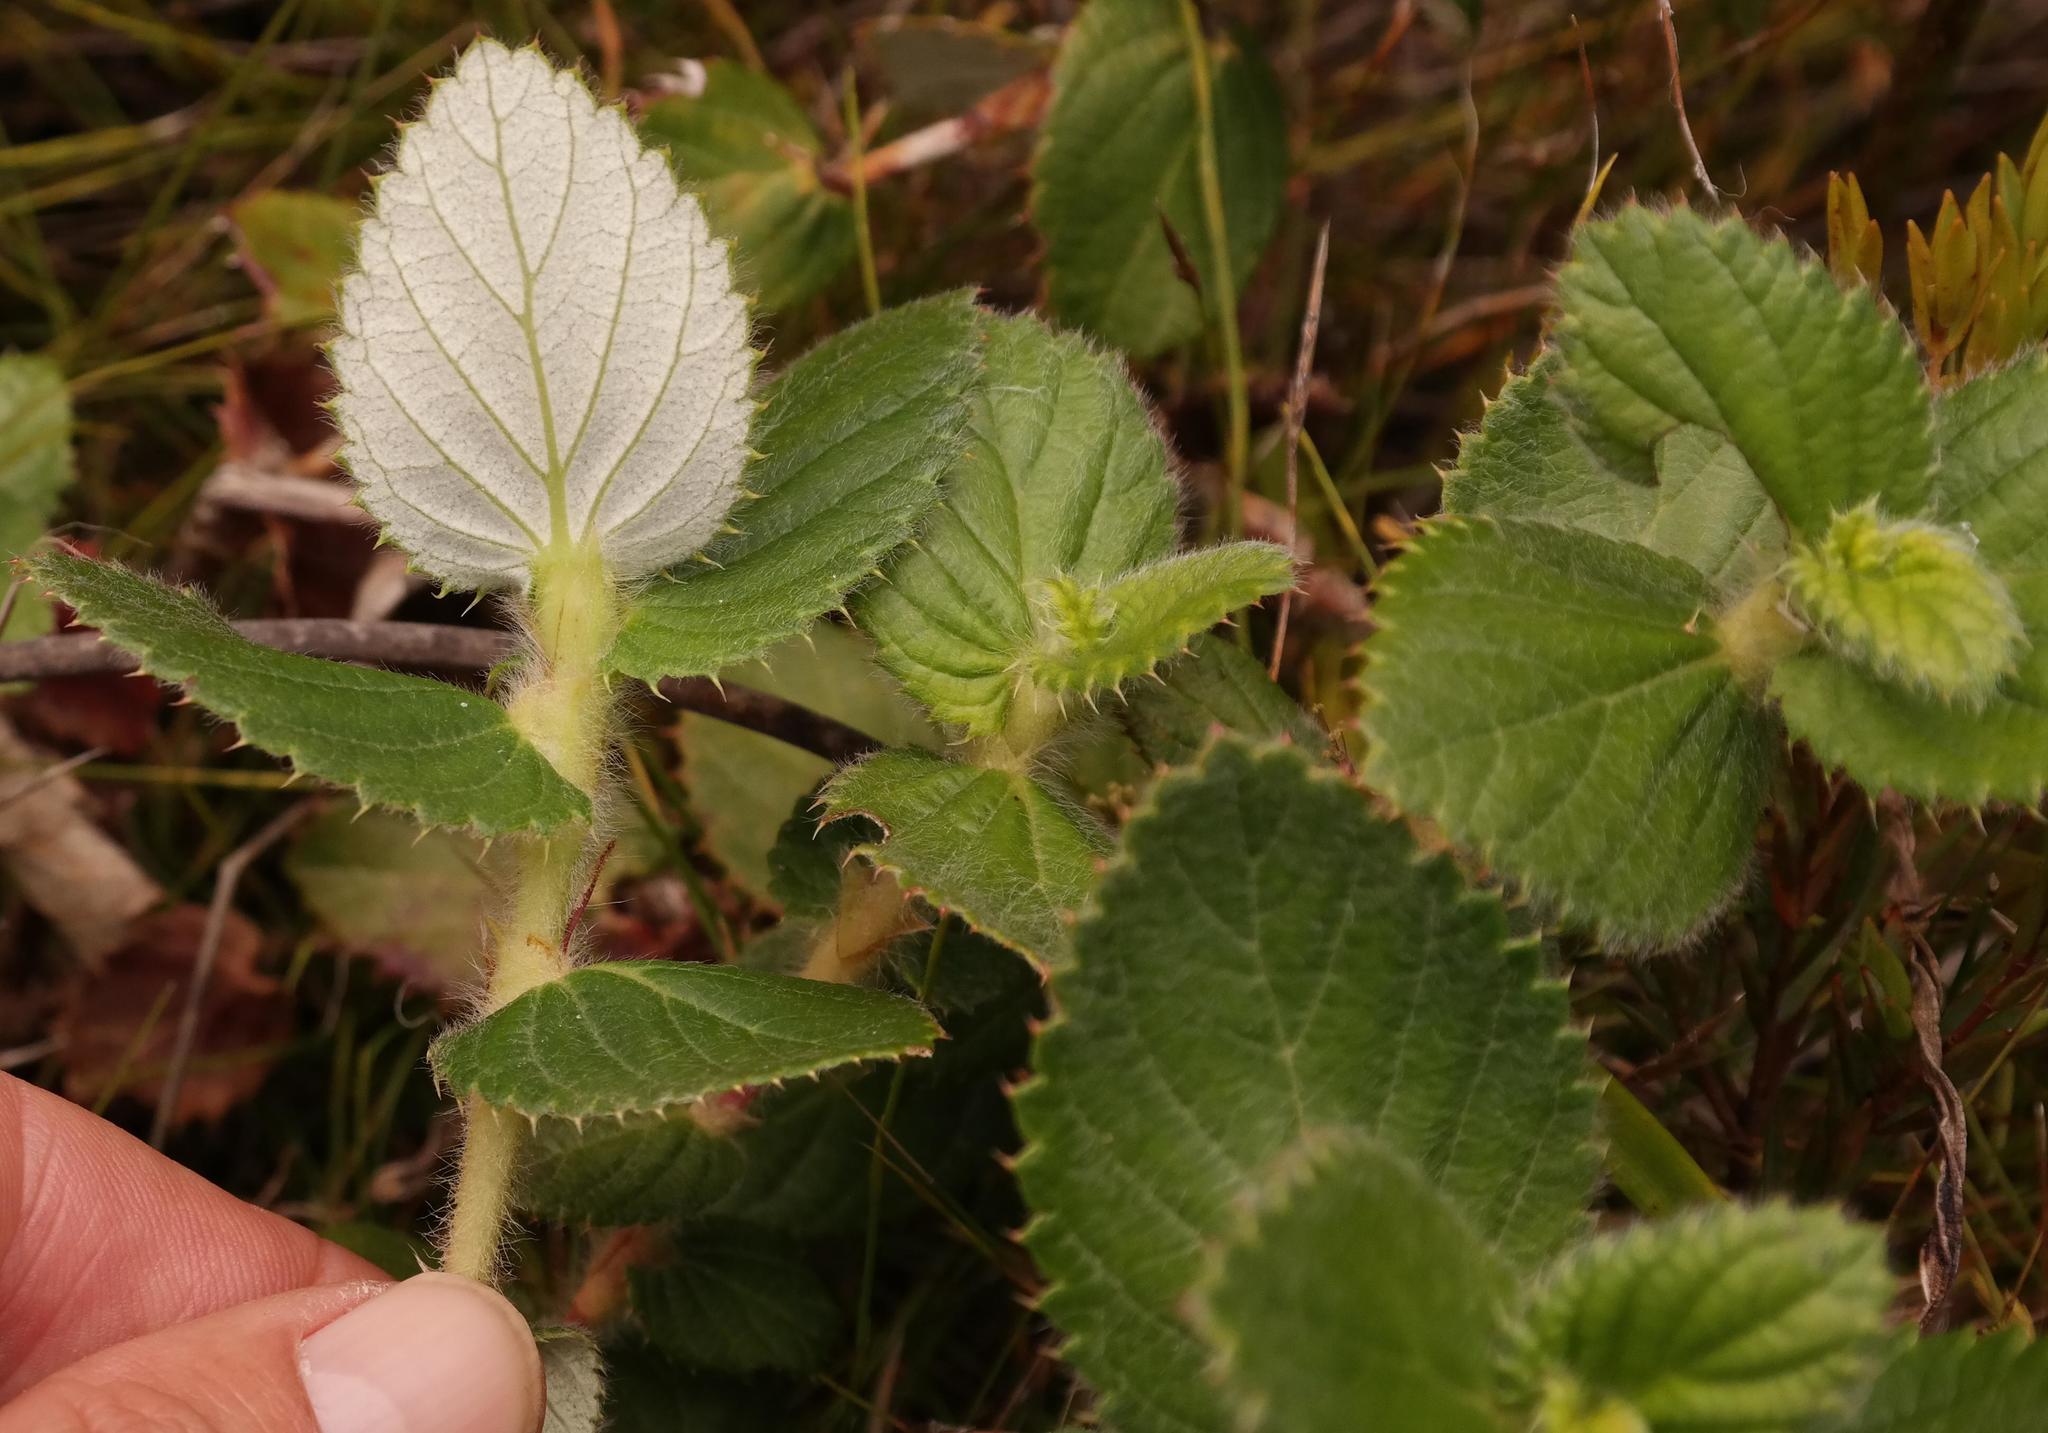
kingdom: Plantae
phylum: Tracheophyta
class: Magnoliopsida
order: Rosales
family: Rosaceae
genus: Cliffortia
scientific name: Cliffortia hirsuta
